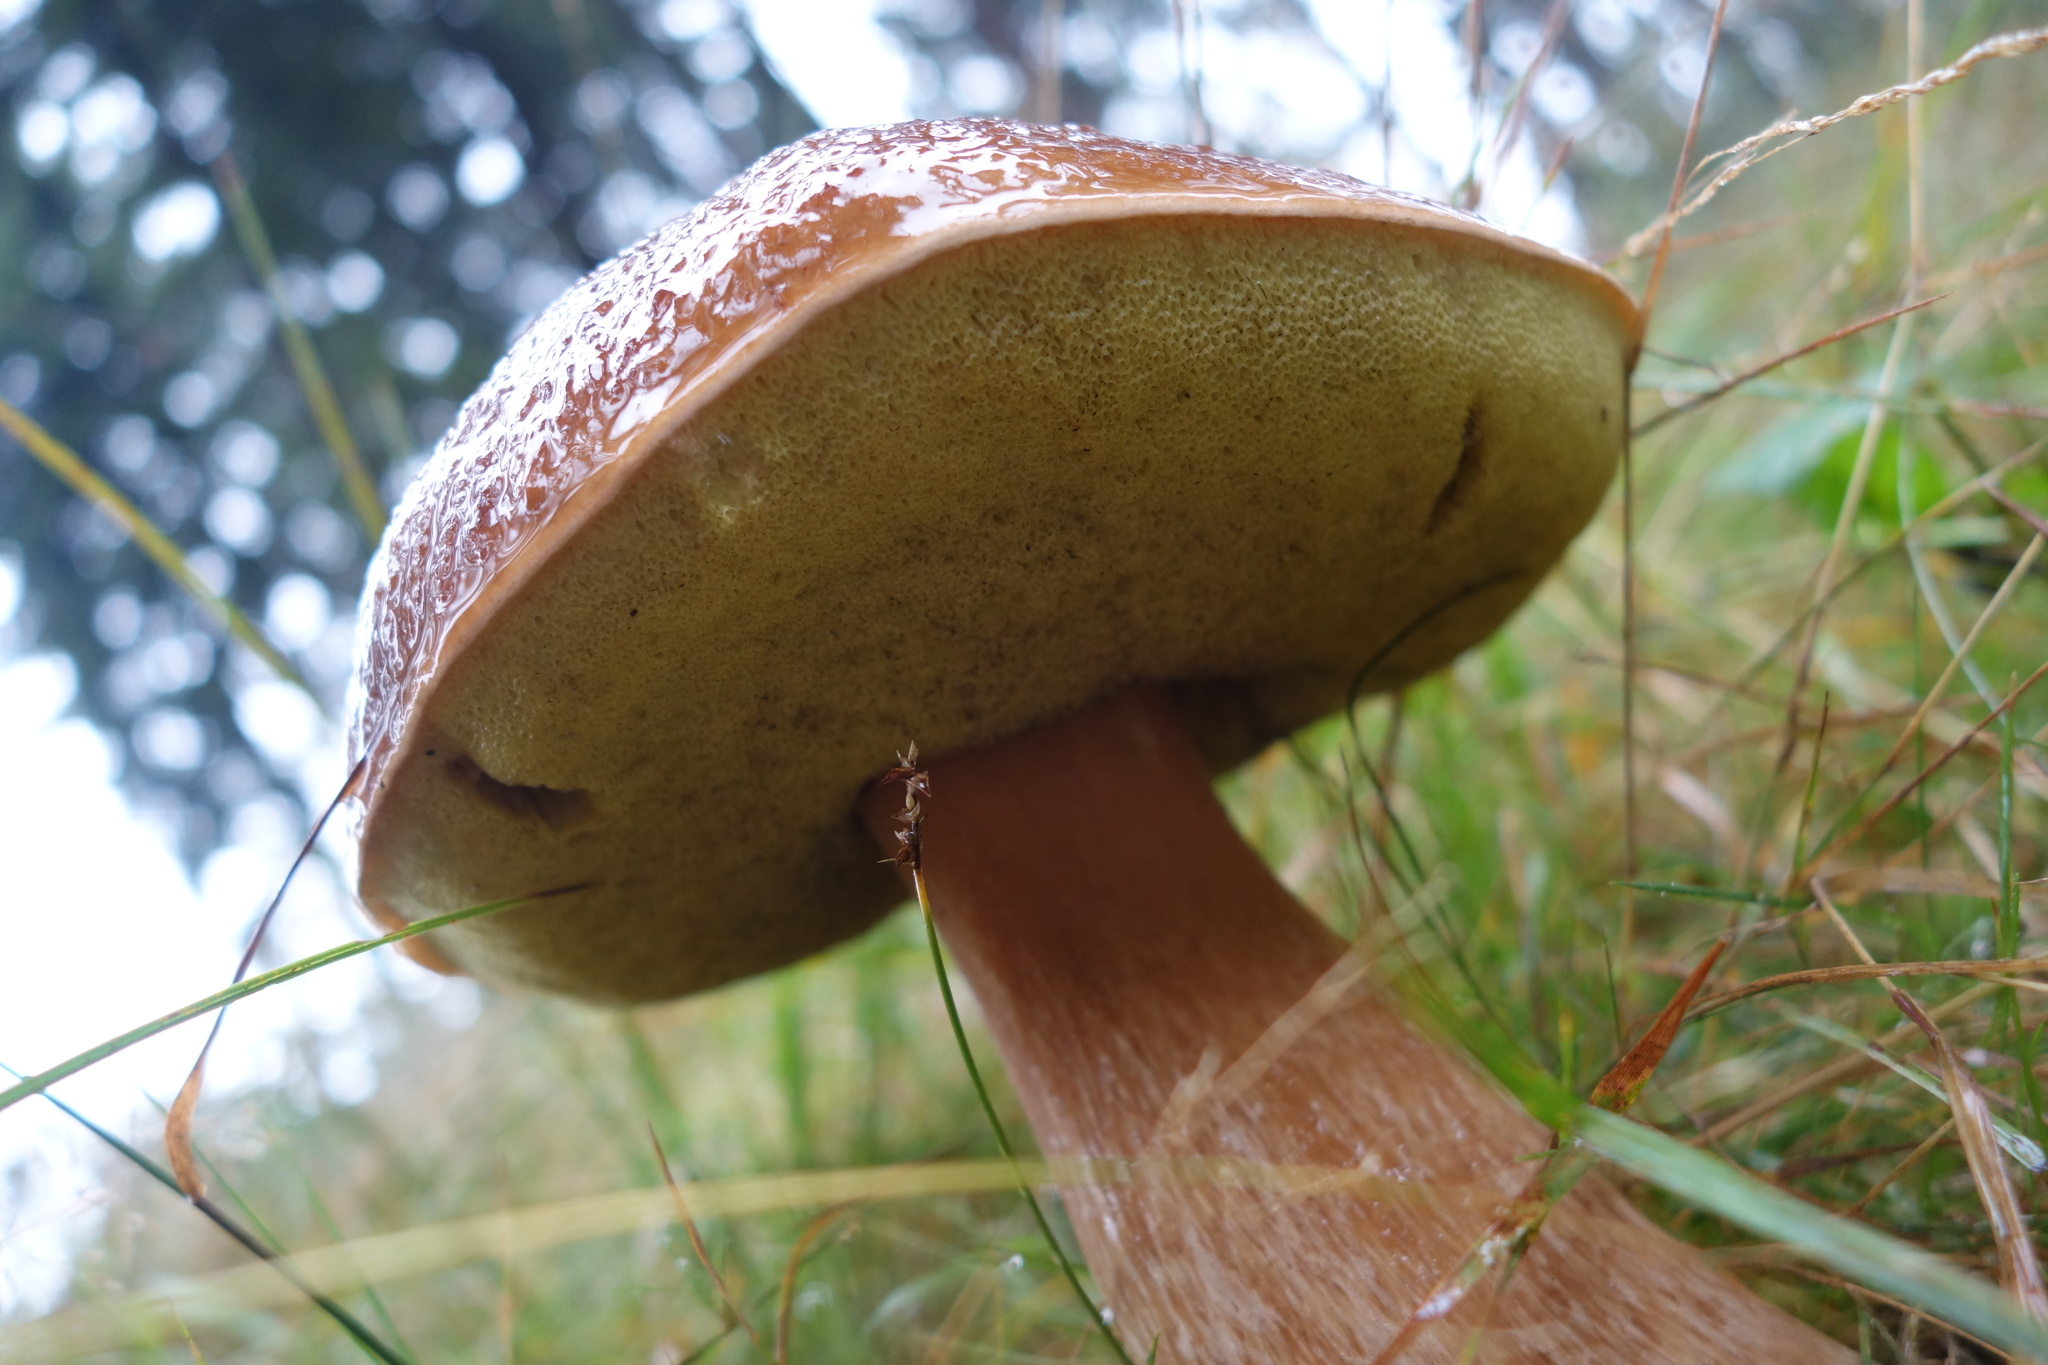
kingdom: Fungi
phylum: Basidiomycota
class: Agaricomycetes
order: Boletales
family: Boletaceae
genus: Boletus
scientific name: Boletus edulis
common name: Cep
